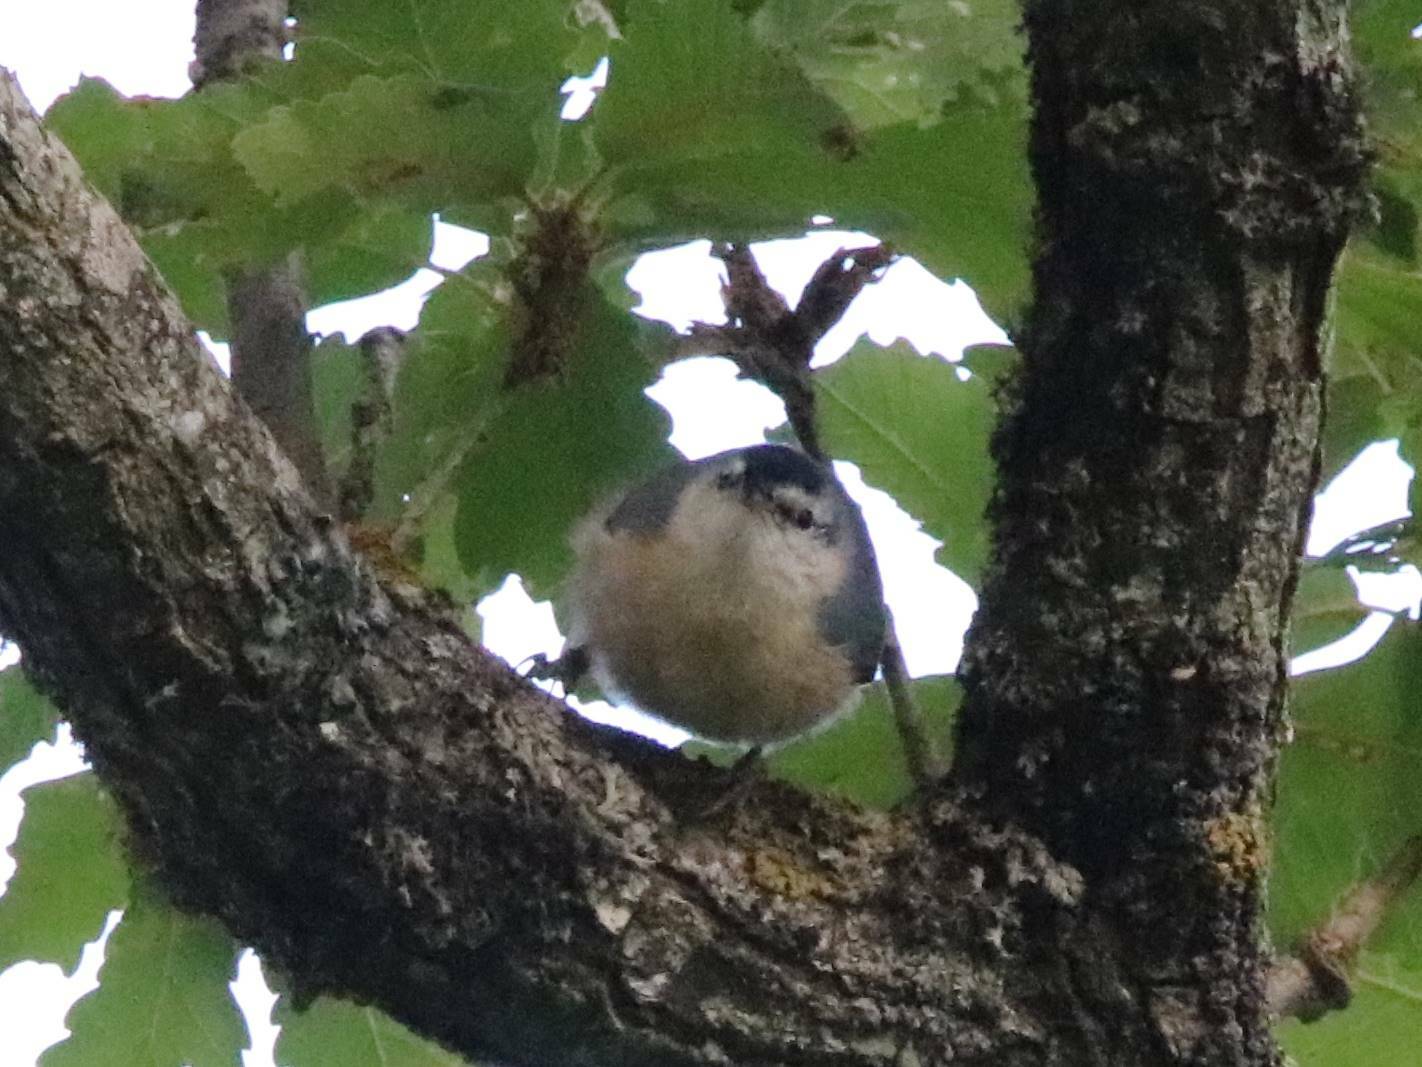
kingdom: Animalia
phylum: Chordata
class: Aves
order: Passeriformes
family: Sittidae
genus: Sitta
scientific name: Sitta ledanti
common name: Algerian nuthatch
